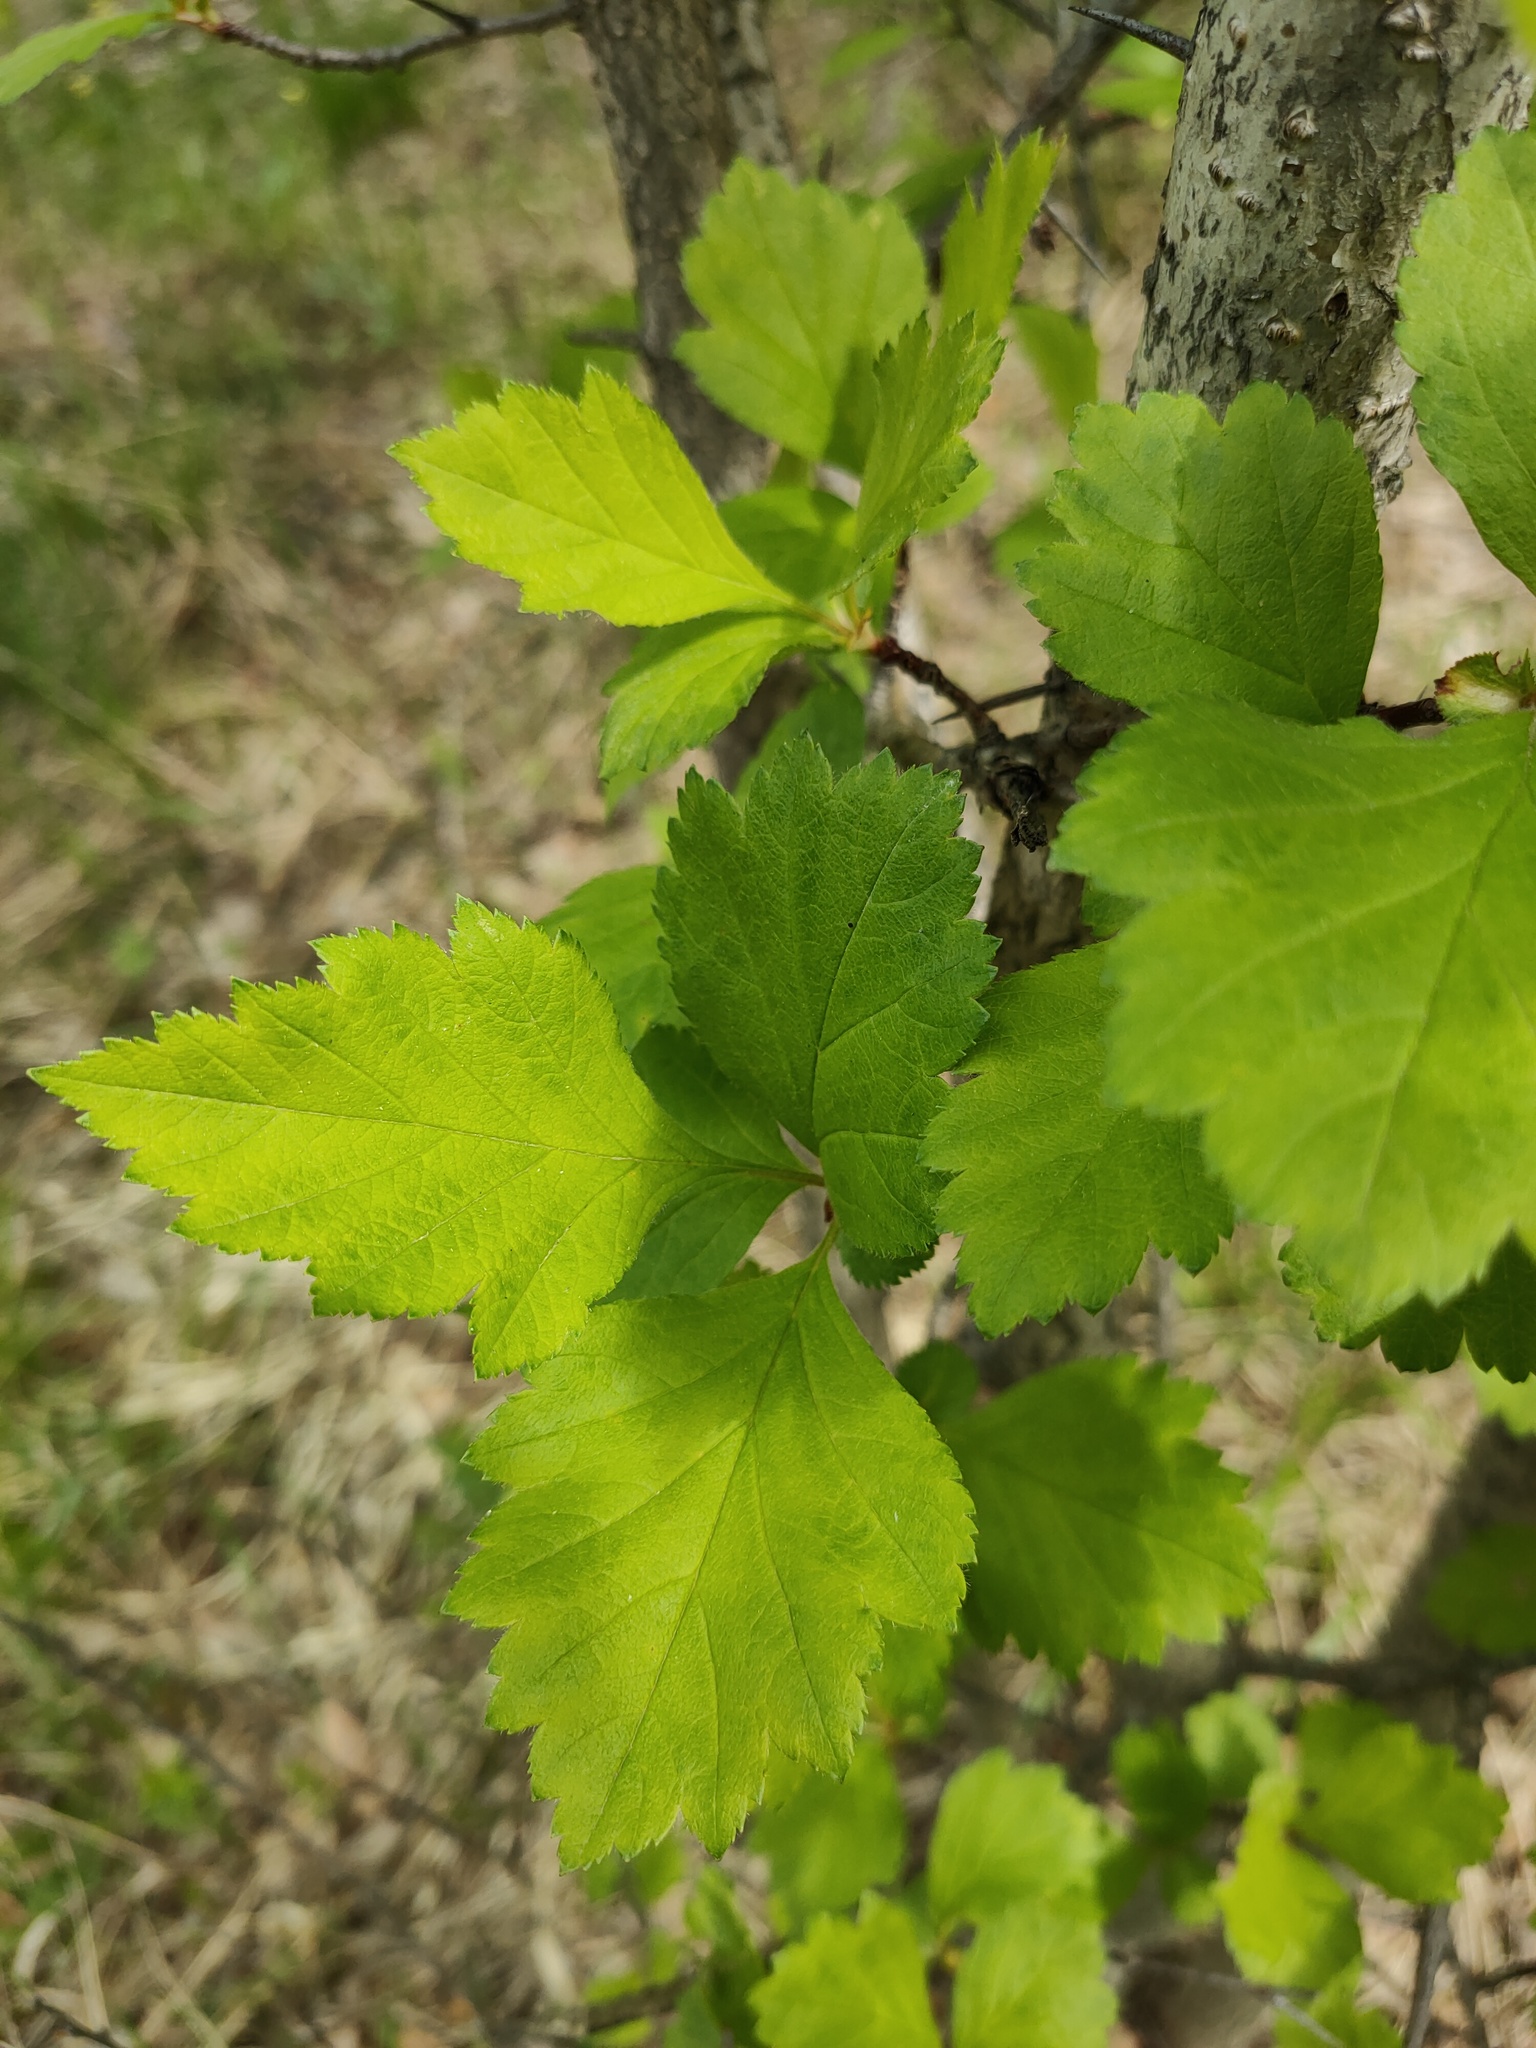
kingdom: Plantae
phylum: Tracheophyta
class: Magnoliopsida
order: Rosales
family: Rosaceae
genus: Crataegus
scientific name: Crataegus sanguinea
